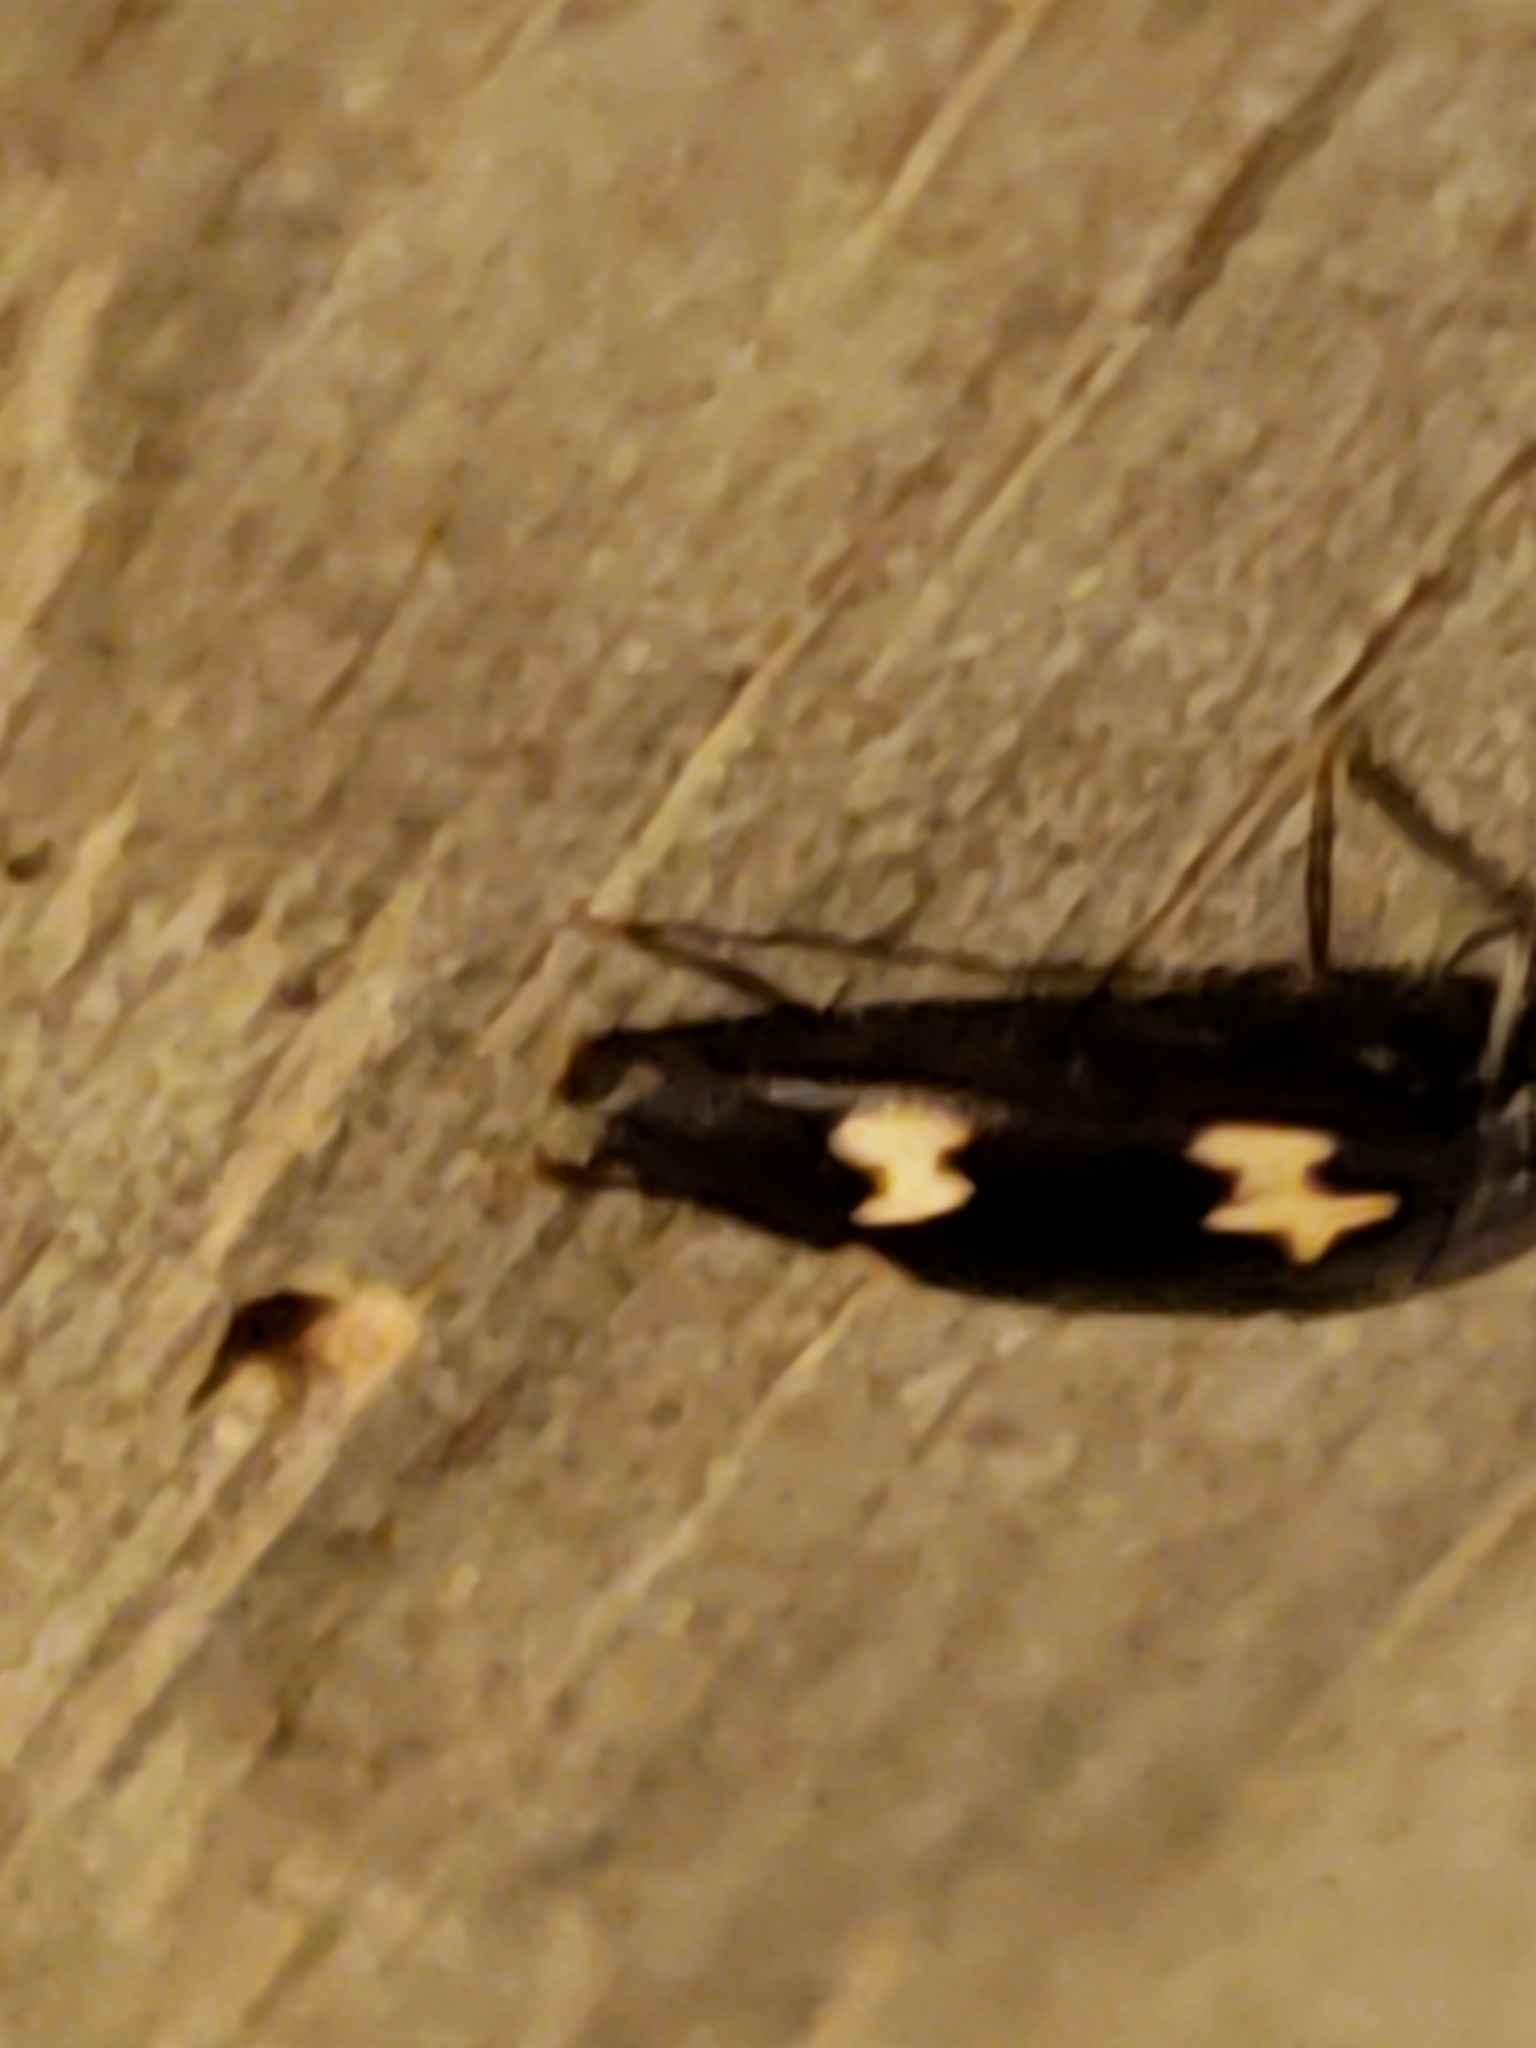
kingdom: Animalia
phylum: Arthropoda
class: Insecta
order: Coleoptera
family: Melandryidae
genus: Dircaea
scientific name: Dircaea liturata
